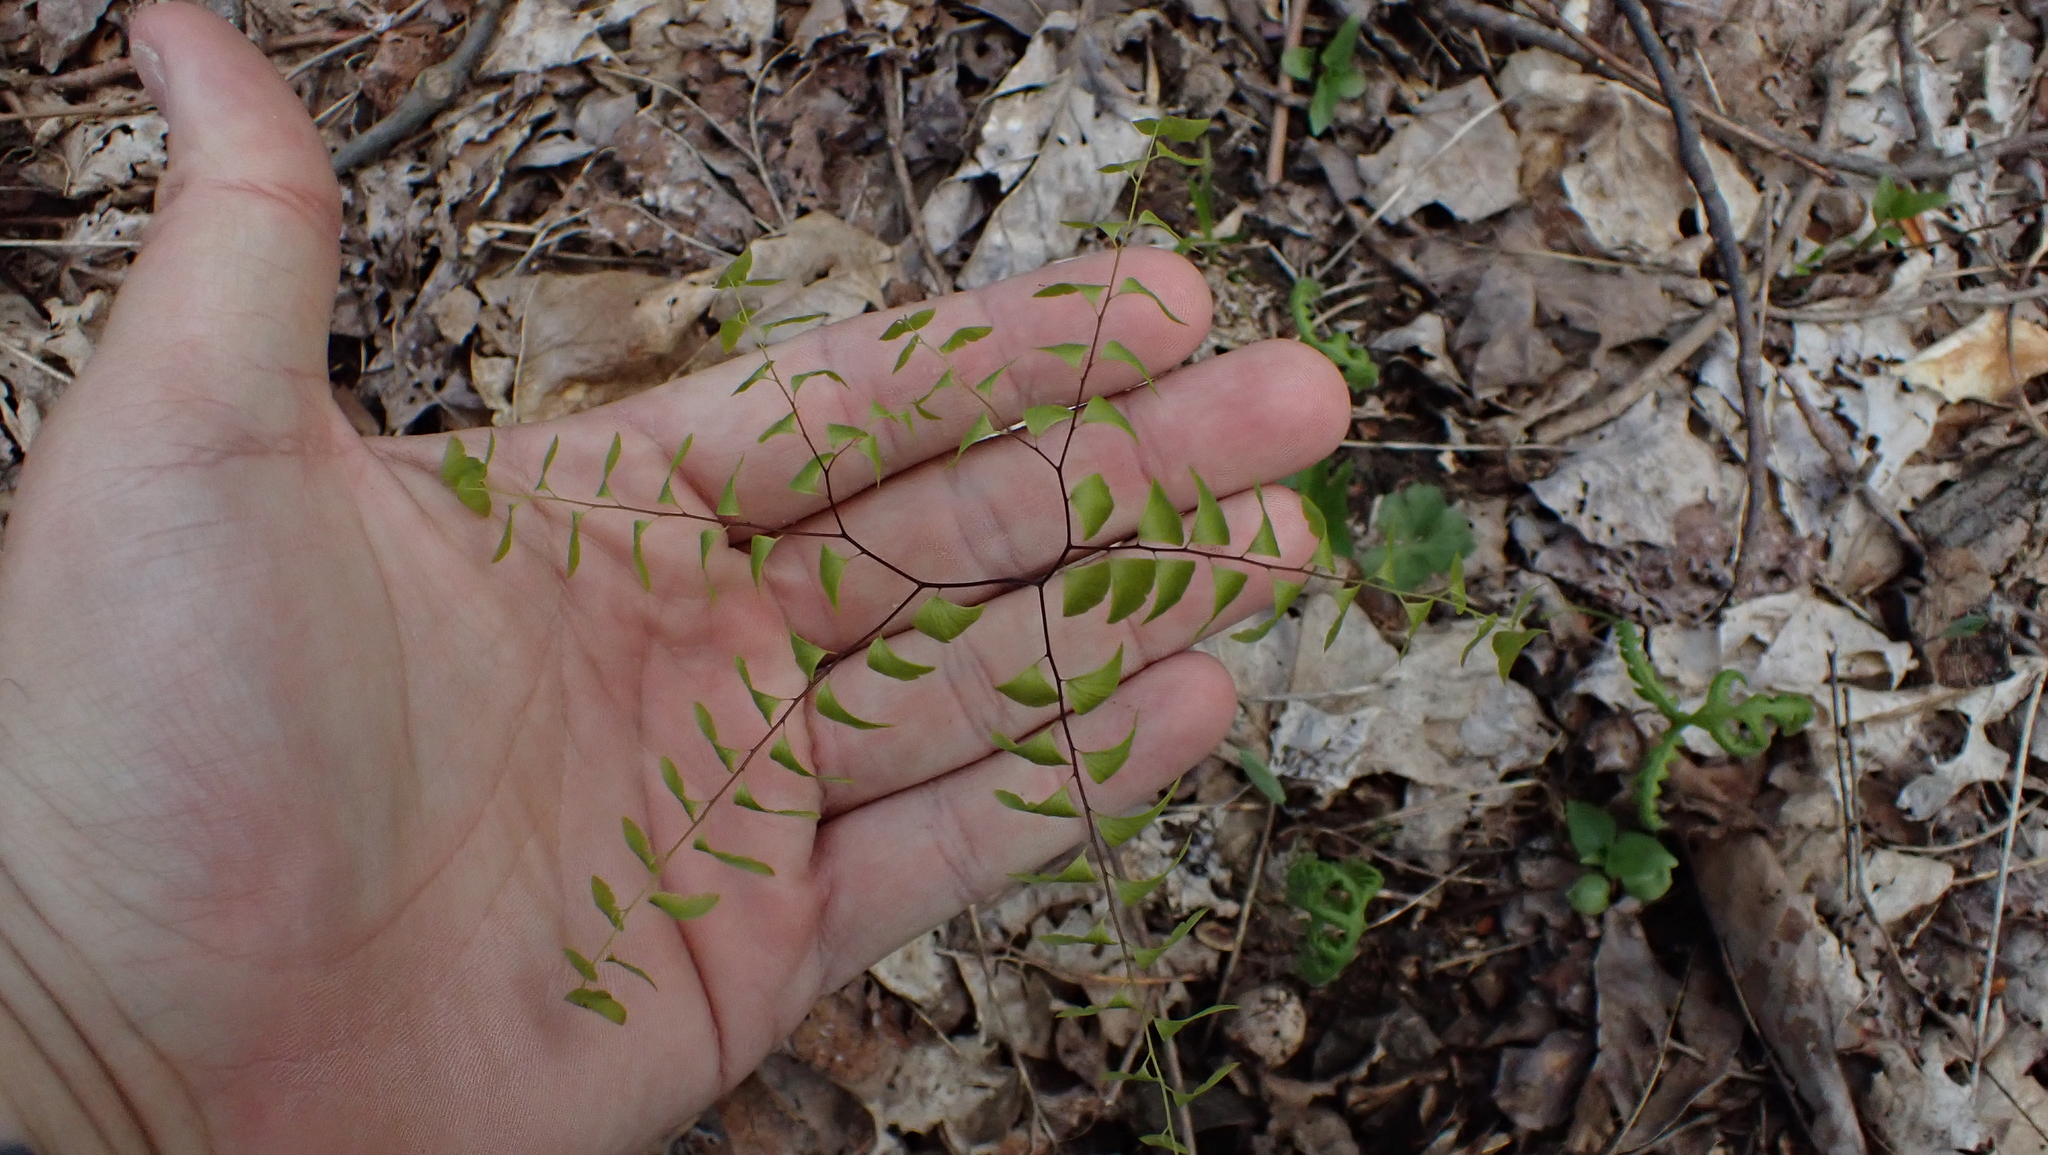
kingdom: Plantae
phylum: Tracheophyta
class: Polypodiopsida
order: Polypodiales
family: Pteridaceae
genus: Adiantum
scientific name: Adiantum pedatum
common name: Five-finger fern
